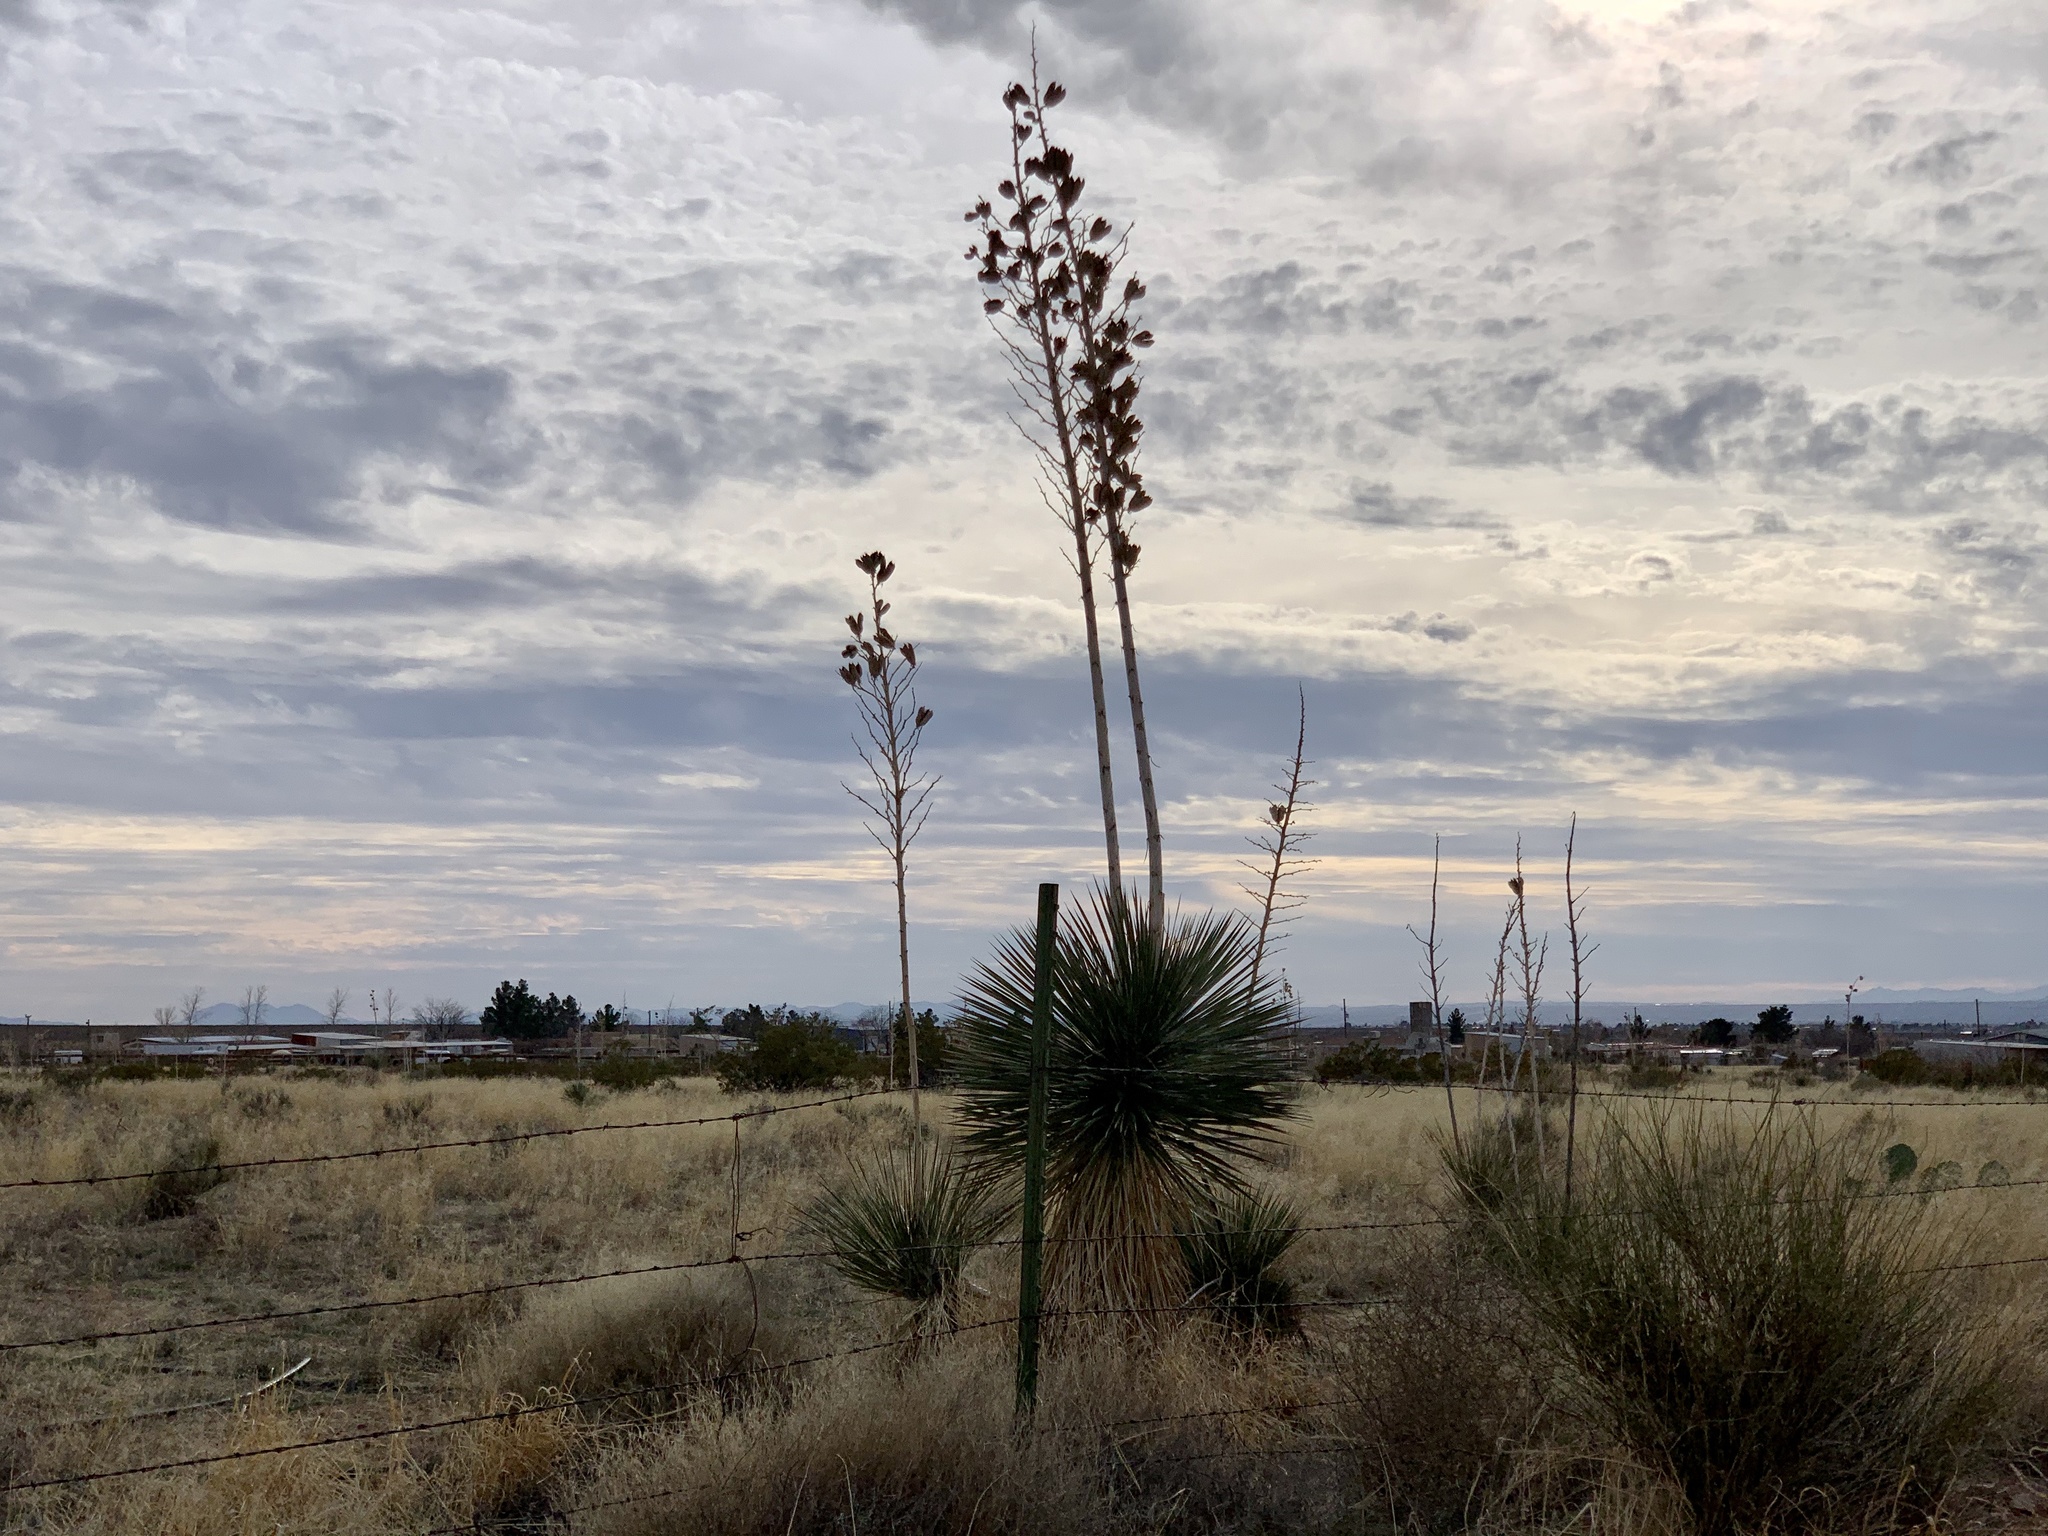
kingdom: Plantae
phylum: Tracheophyta
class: Liliopsida
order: Asparagales
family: Asparagaceae
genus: Yucca
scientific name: Yucca elata
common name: Palmella
